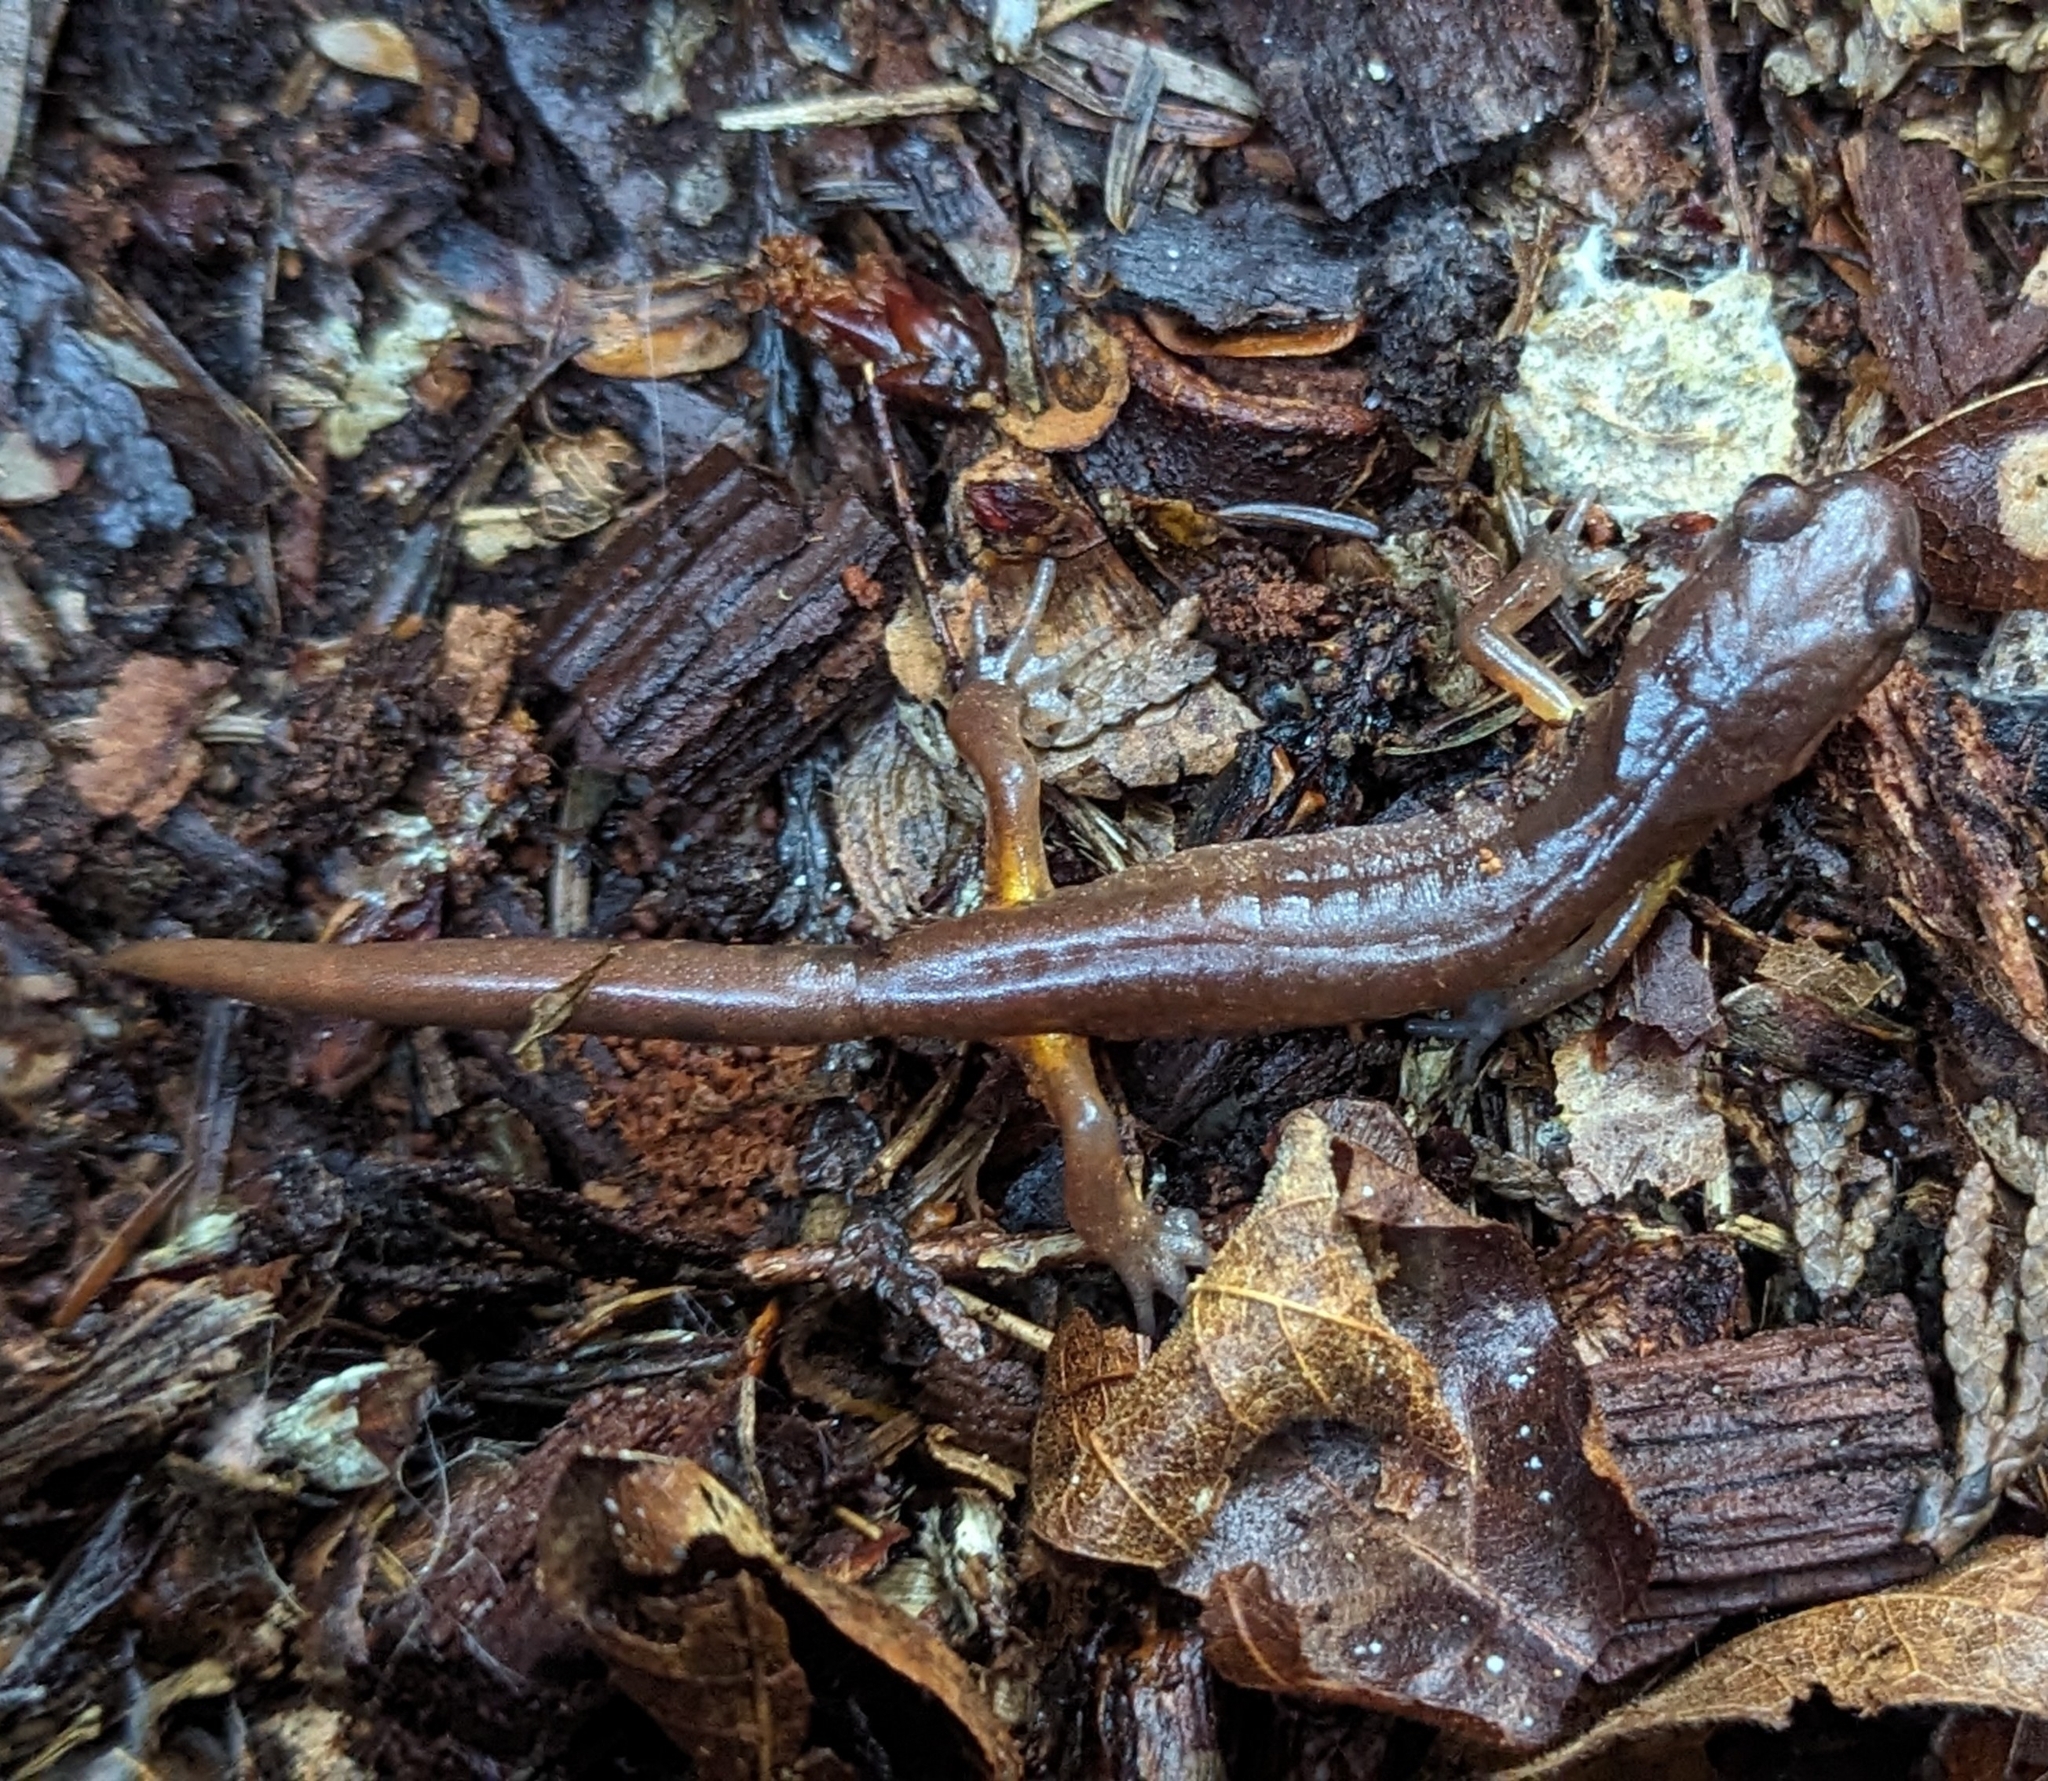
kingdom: Animalia
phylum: Chordata
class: Amphibia
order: Caudata
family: Plethodontidae
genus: Ensatina
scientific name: Ensatina eschscholtzii
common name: Ensatina
